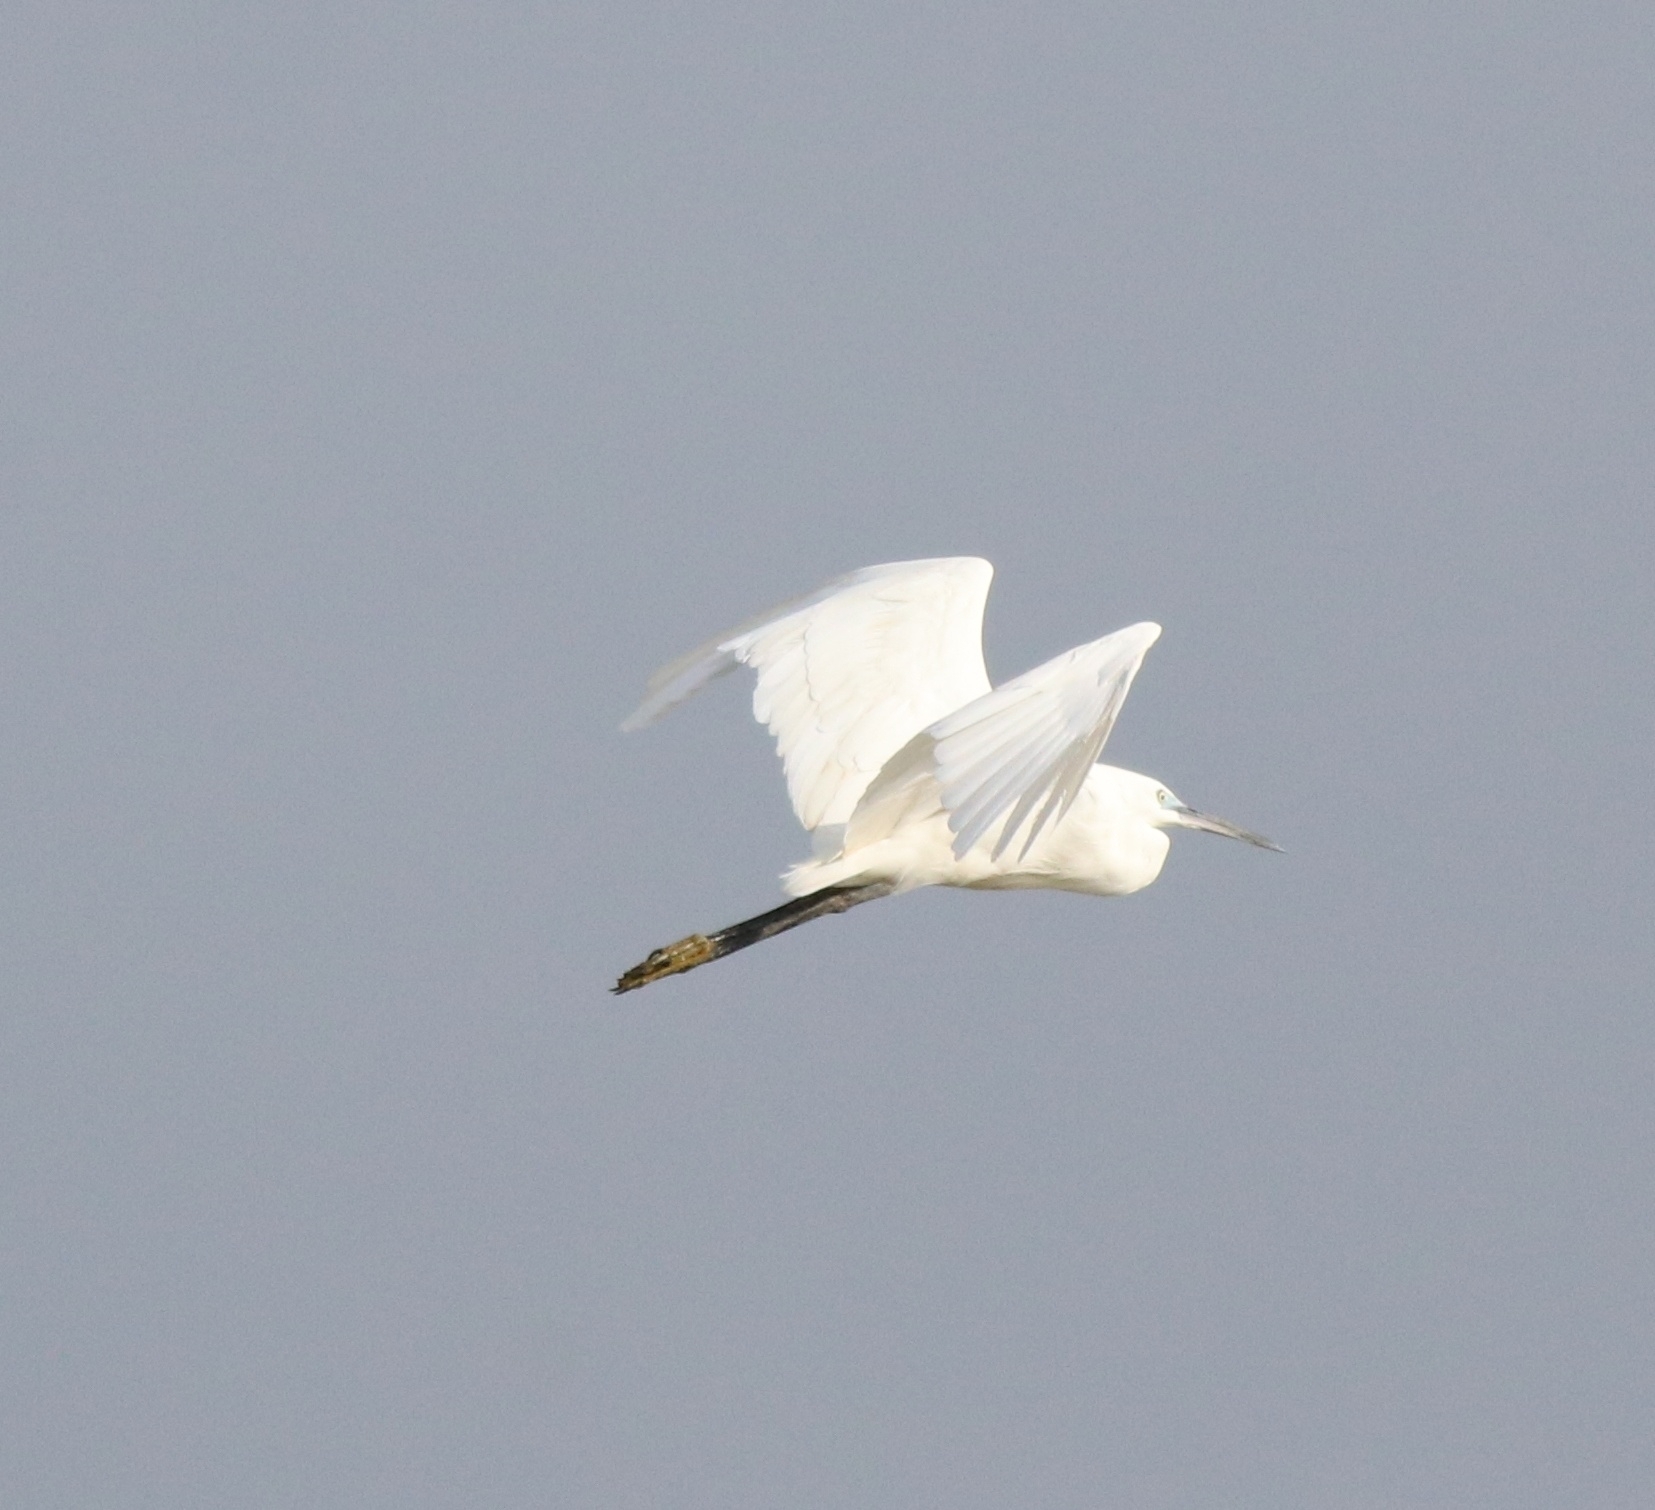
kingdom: Animalia
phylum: Chordata
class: Aves
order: Pelecaniformes
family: Ardeidae
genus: Egretta
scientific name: Egretta garzetta
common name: Little egret
